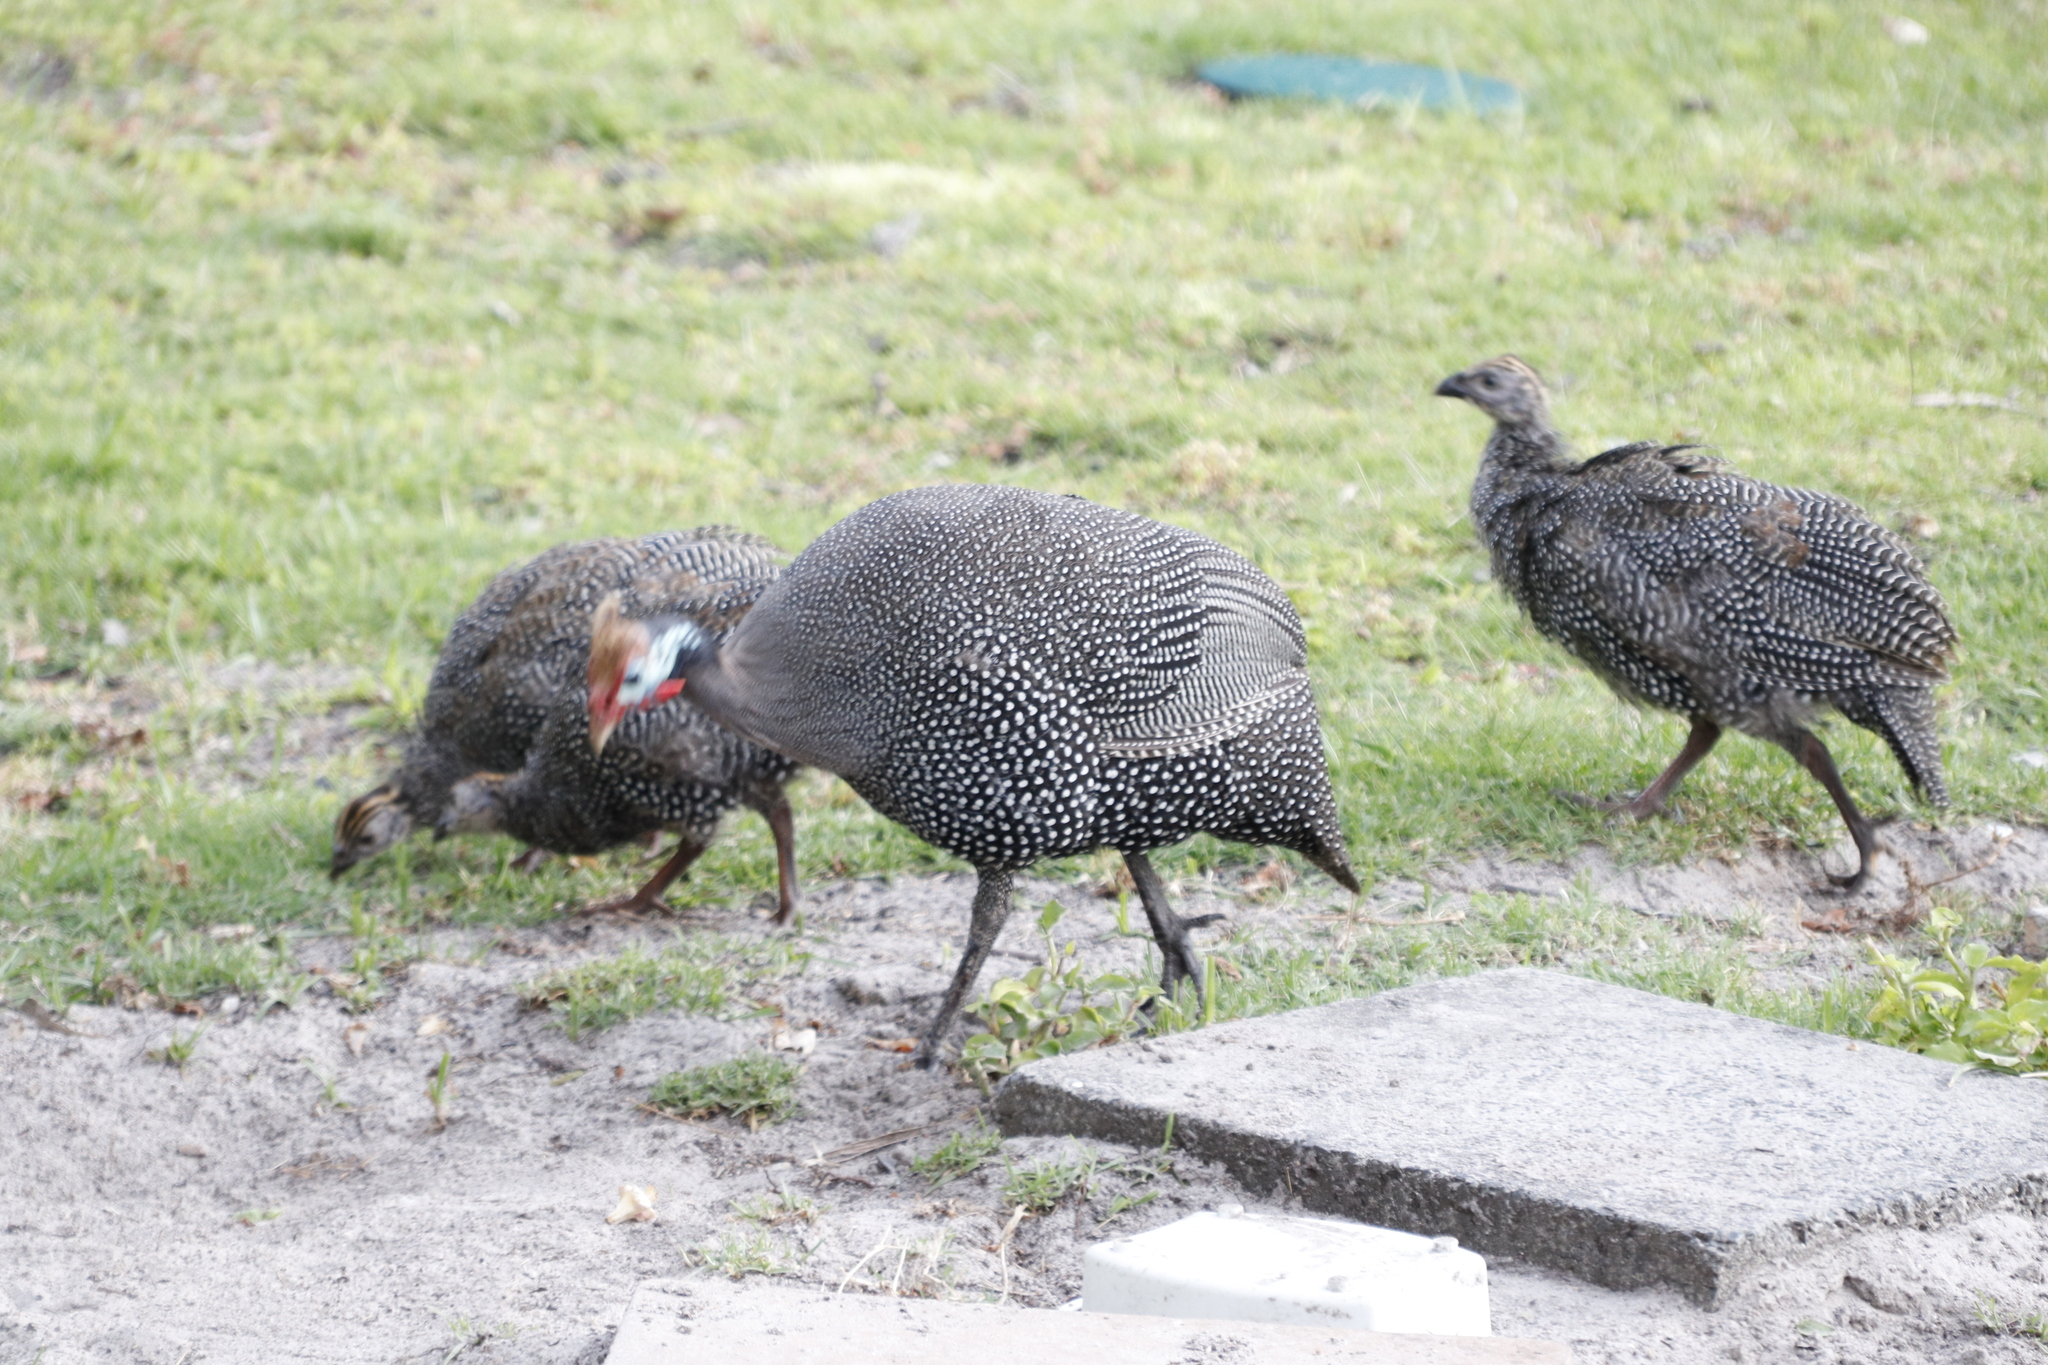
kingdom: Animalia
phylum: Chordata
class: Aves
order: Galliformes
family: Numididae
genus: Numida
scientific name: Numida meleagris
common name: Helmeted guineafowl
